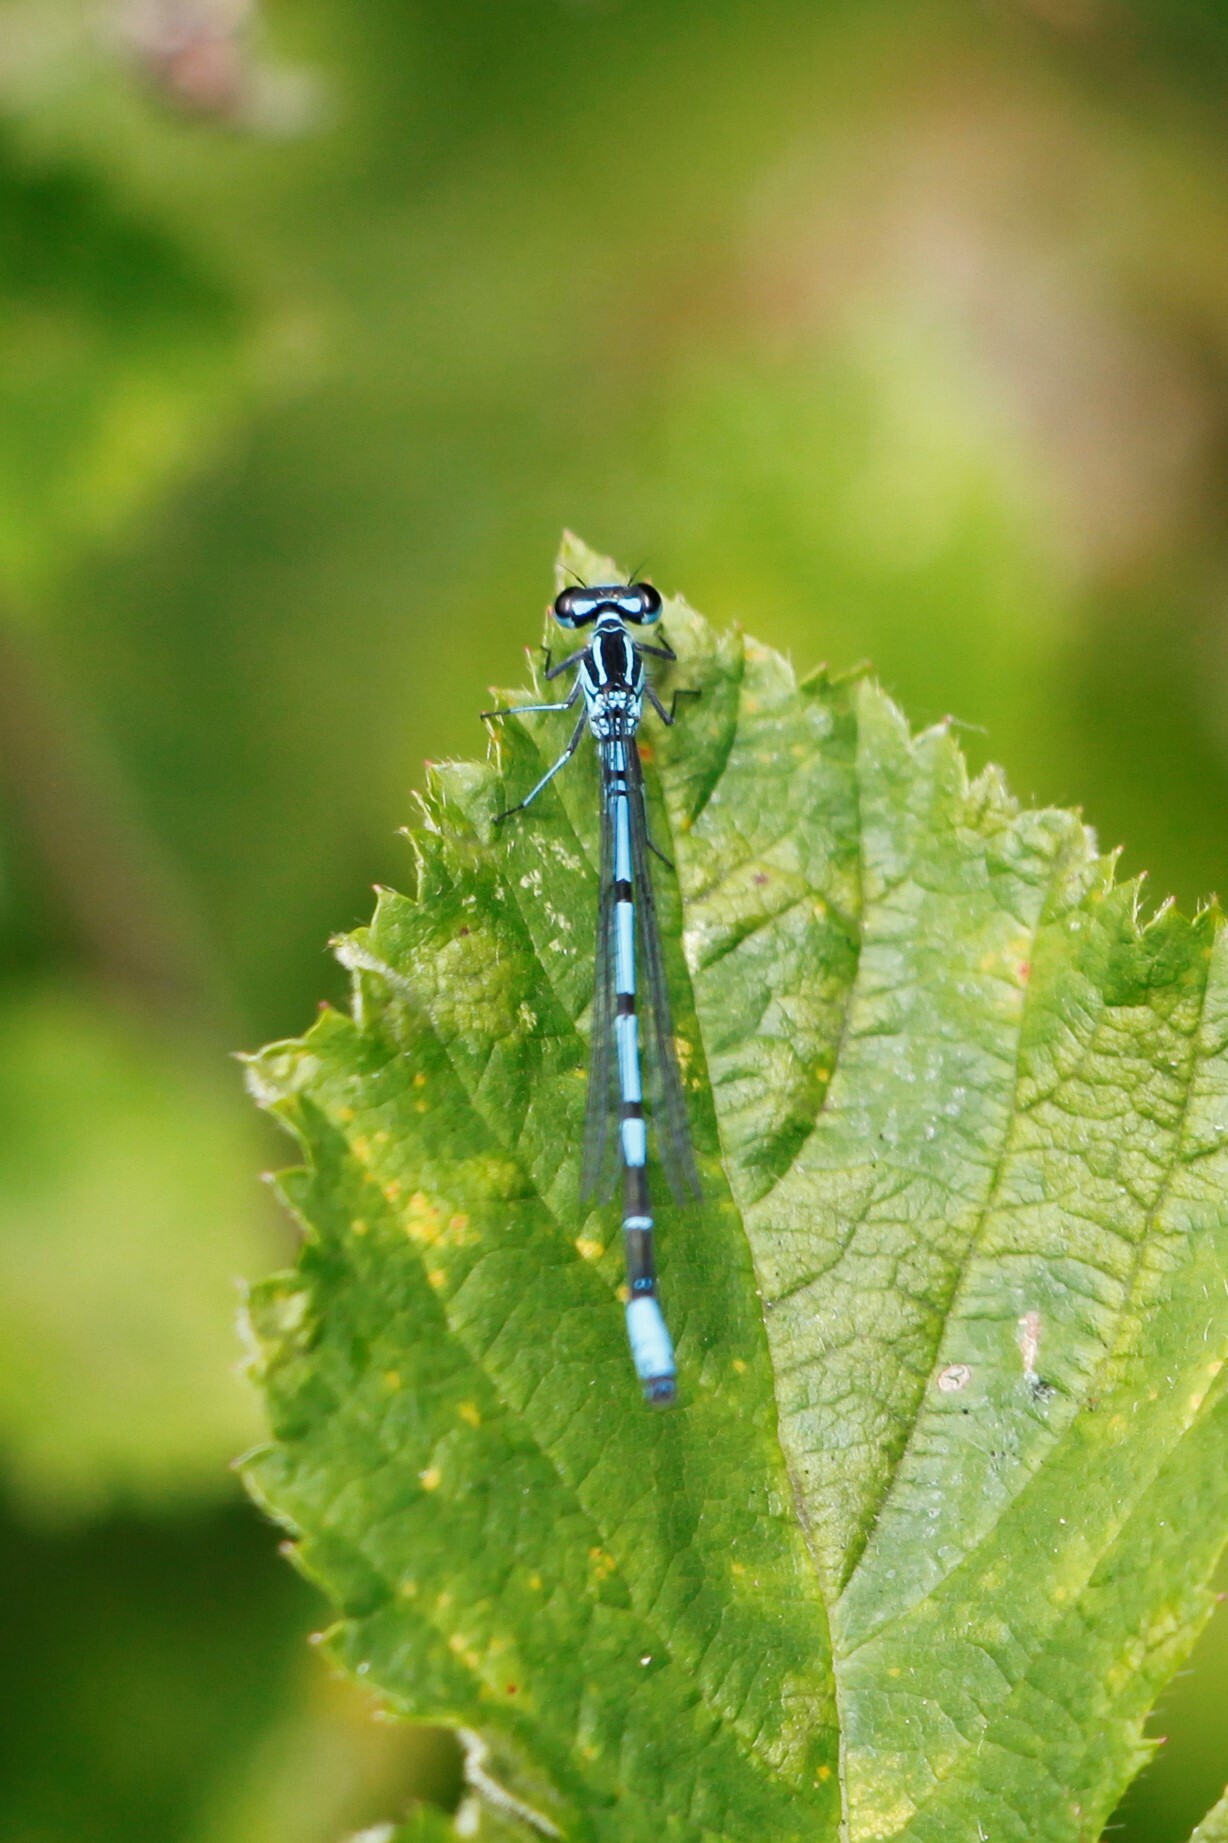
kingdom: Animalia
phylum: Arthropoda
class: Insecta
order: Odonata
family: Coenagrionidae
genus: Coenagrion
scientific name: Coenagrion puella
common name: Azure damselfly
